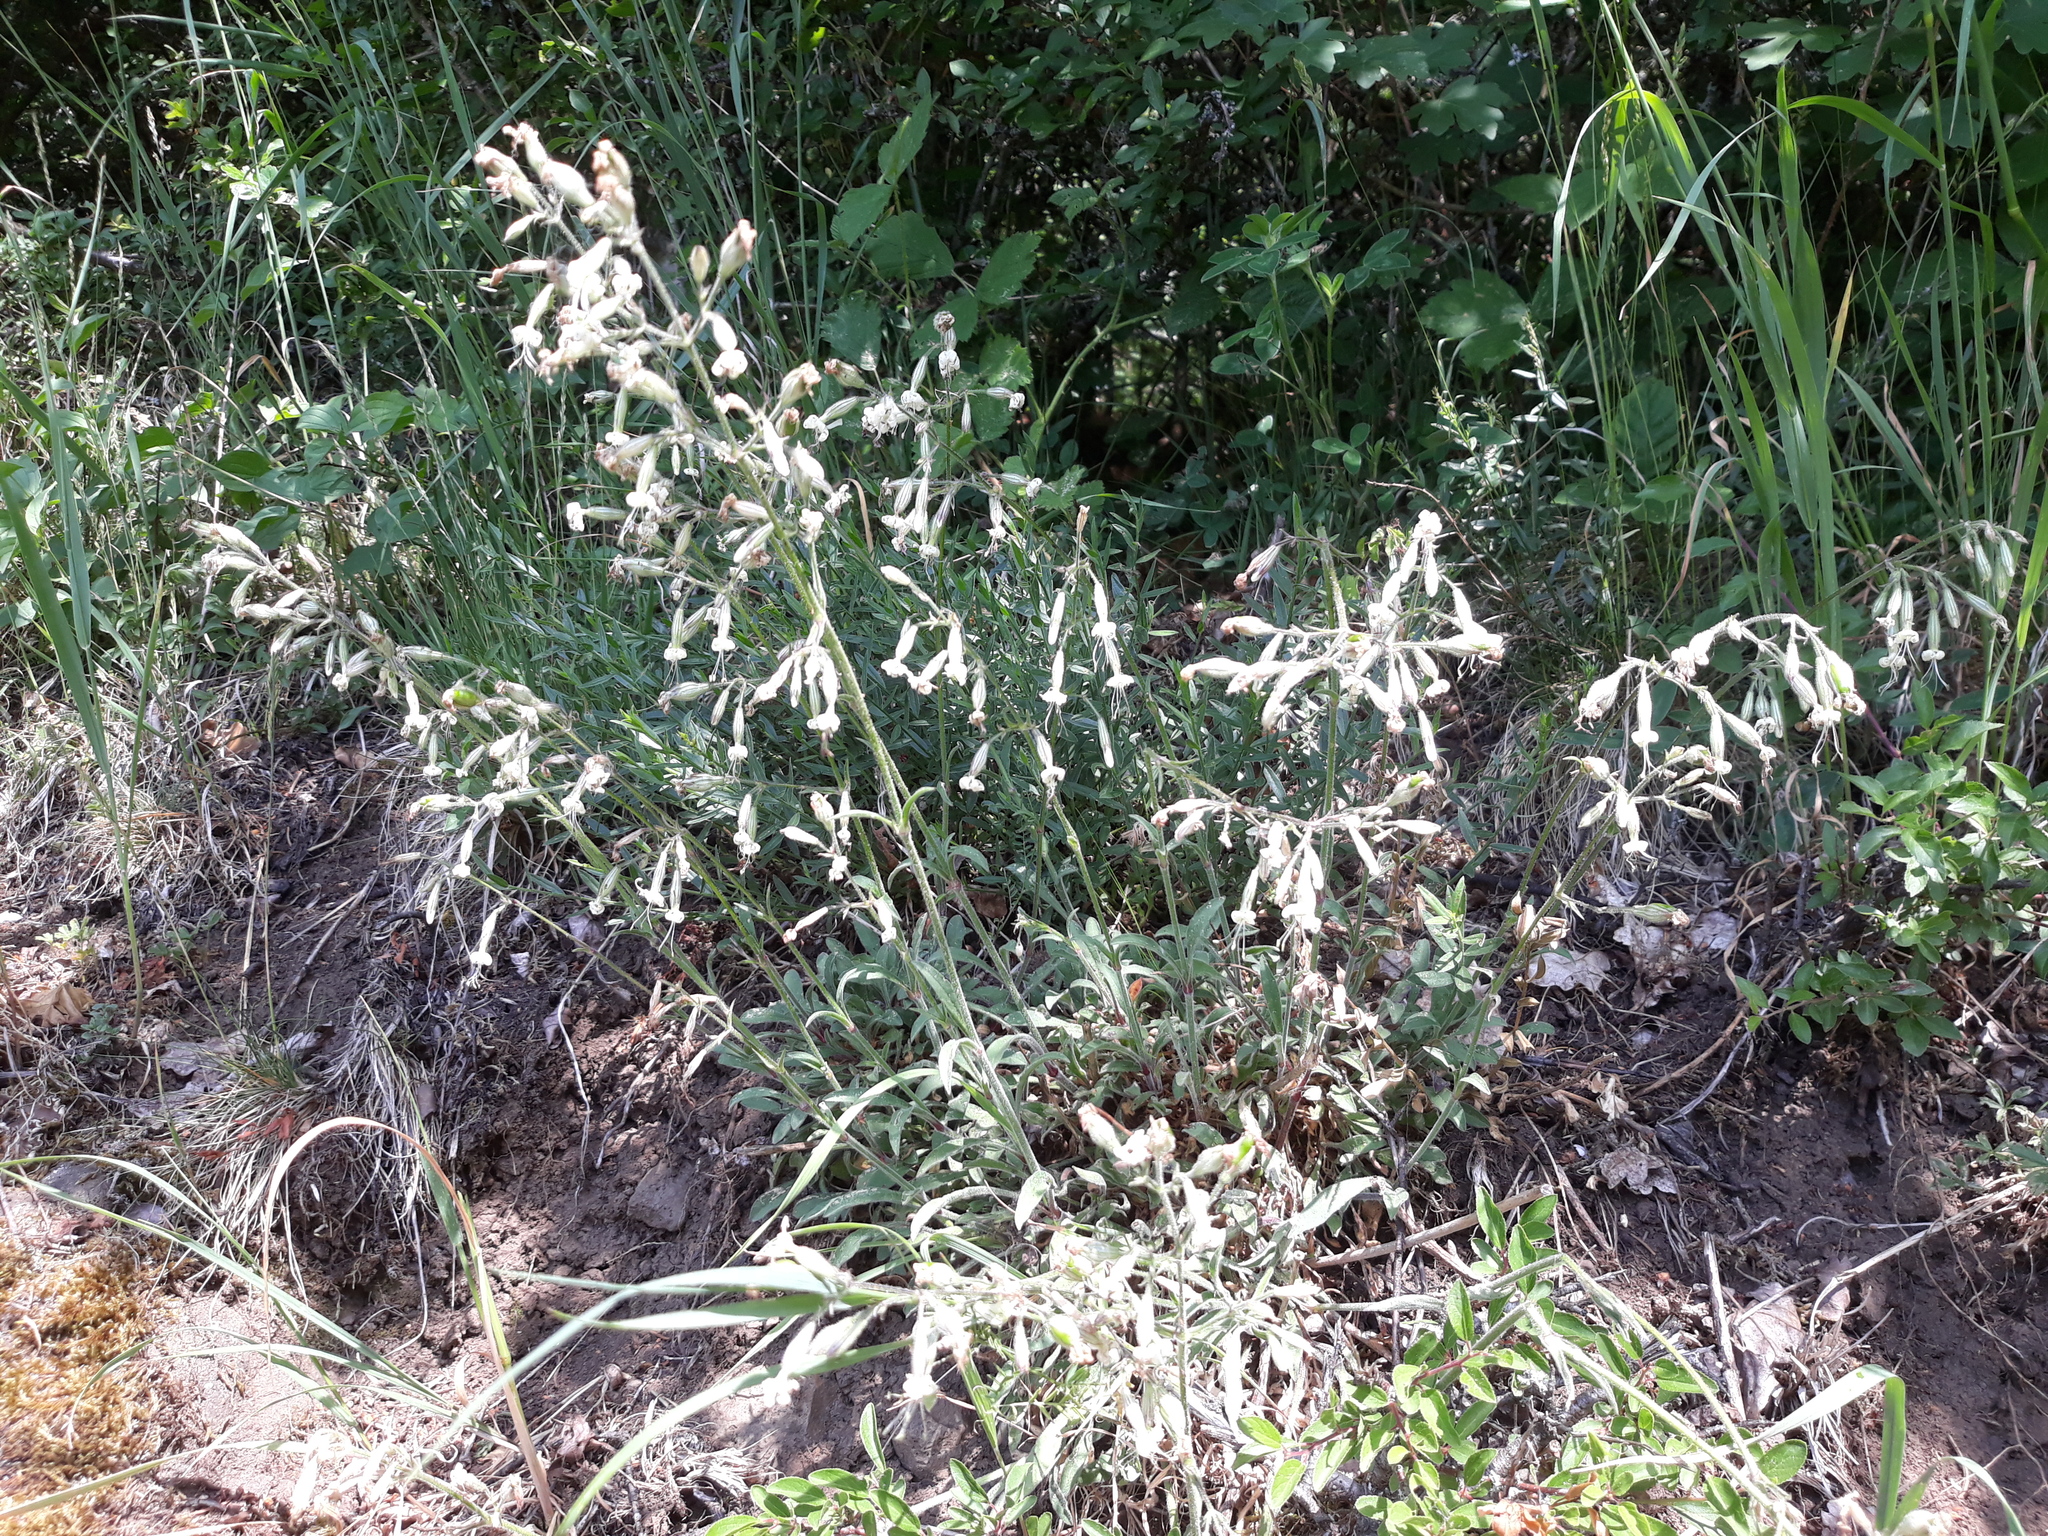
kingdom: Plantae
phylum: Tracheophyta
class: Magnoliopsida
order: Caryophyllales
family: Caryophyllaceae
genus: Silene
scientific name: Silene nutans
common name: Nottingham catchfly
